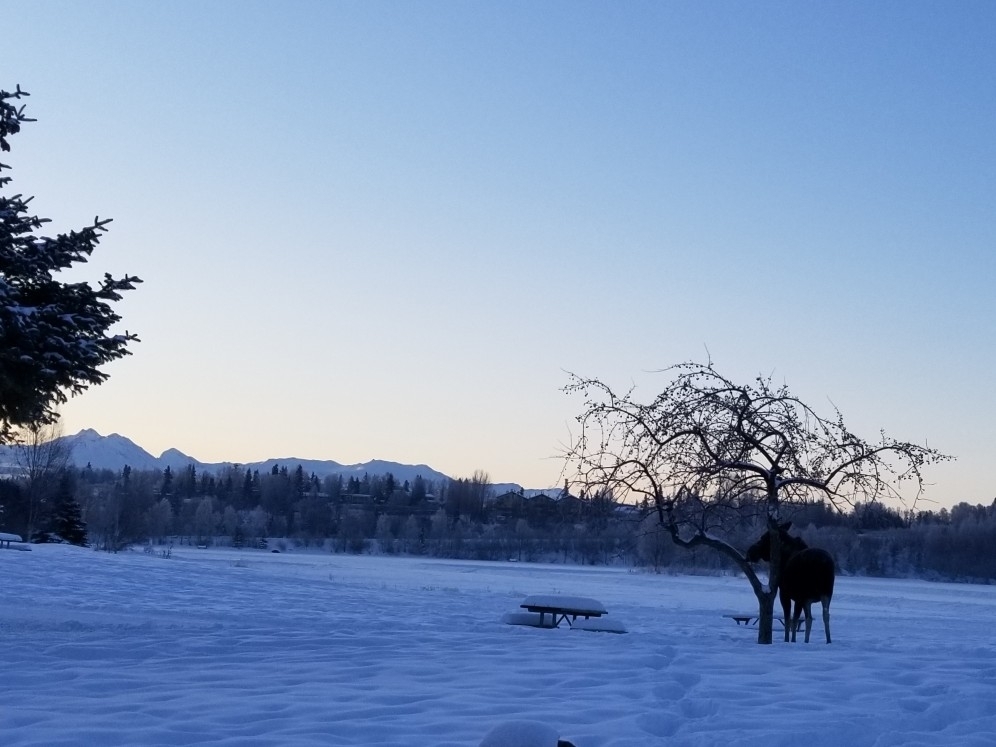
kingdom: Animalia
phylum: Chordata
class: Mammalia
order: Artiodactyla
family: Cervidae
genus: Alces
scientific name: Alces alces
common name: Moose
